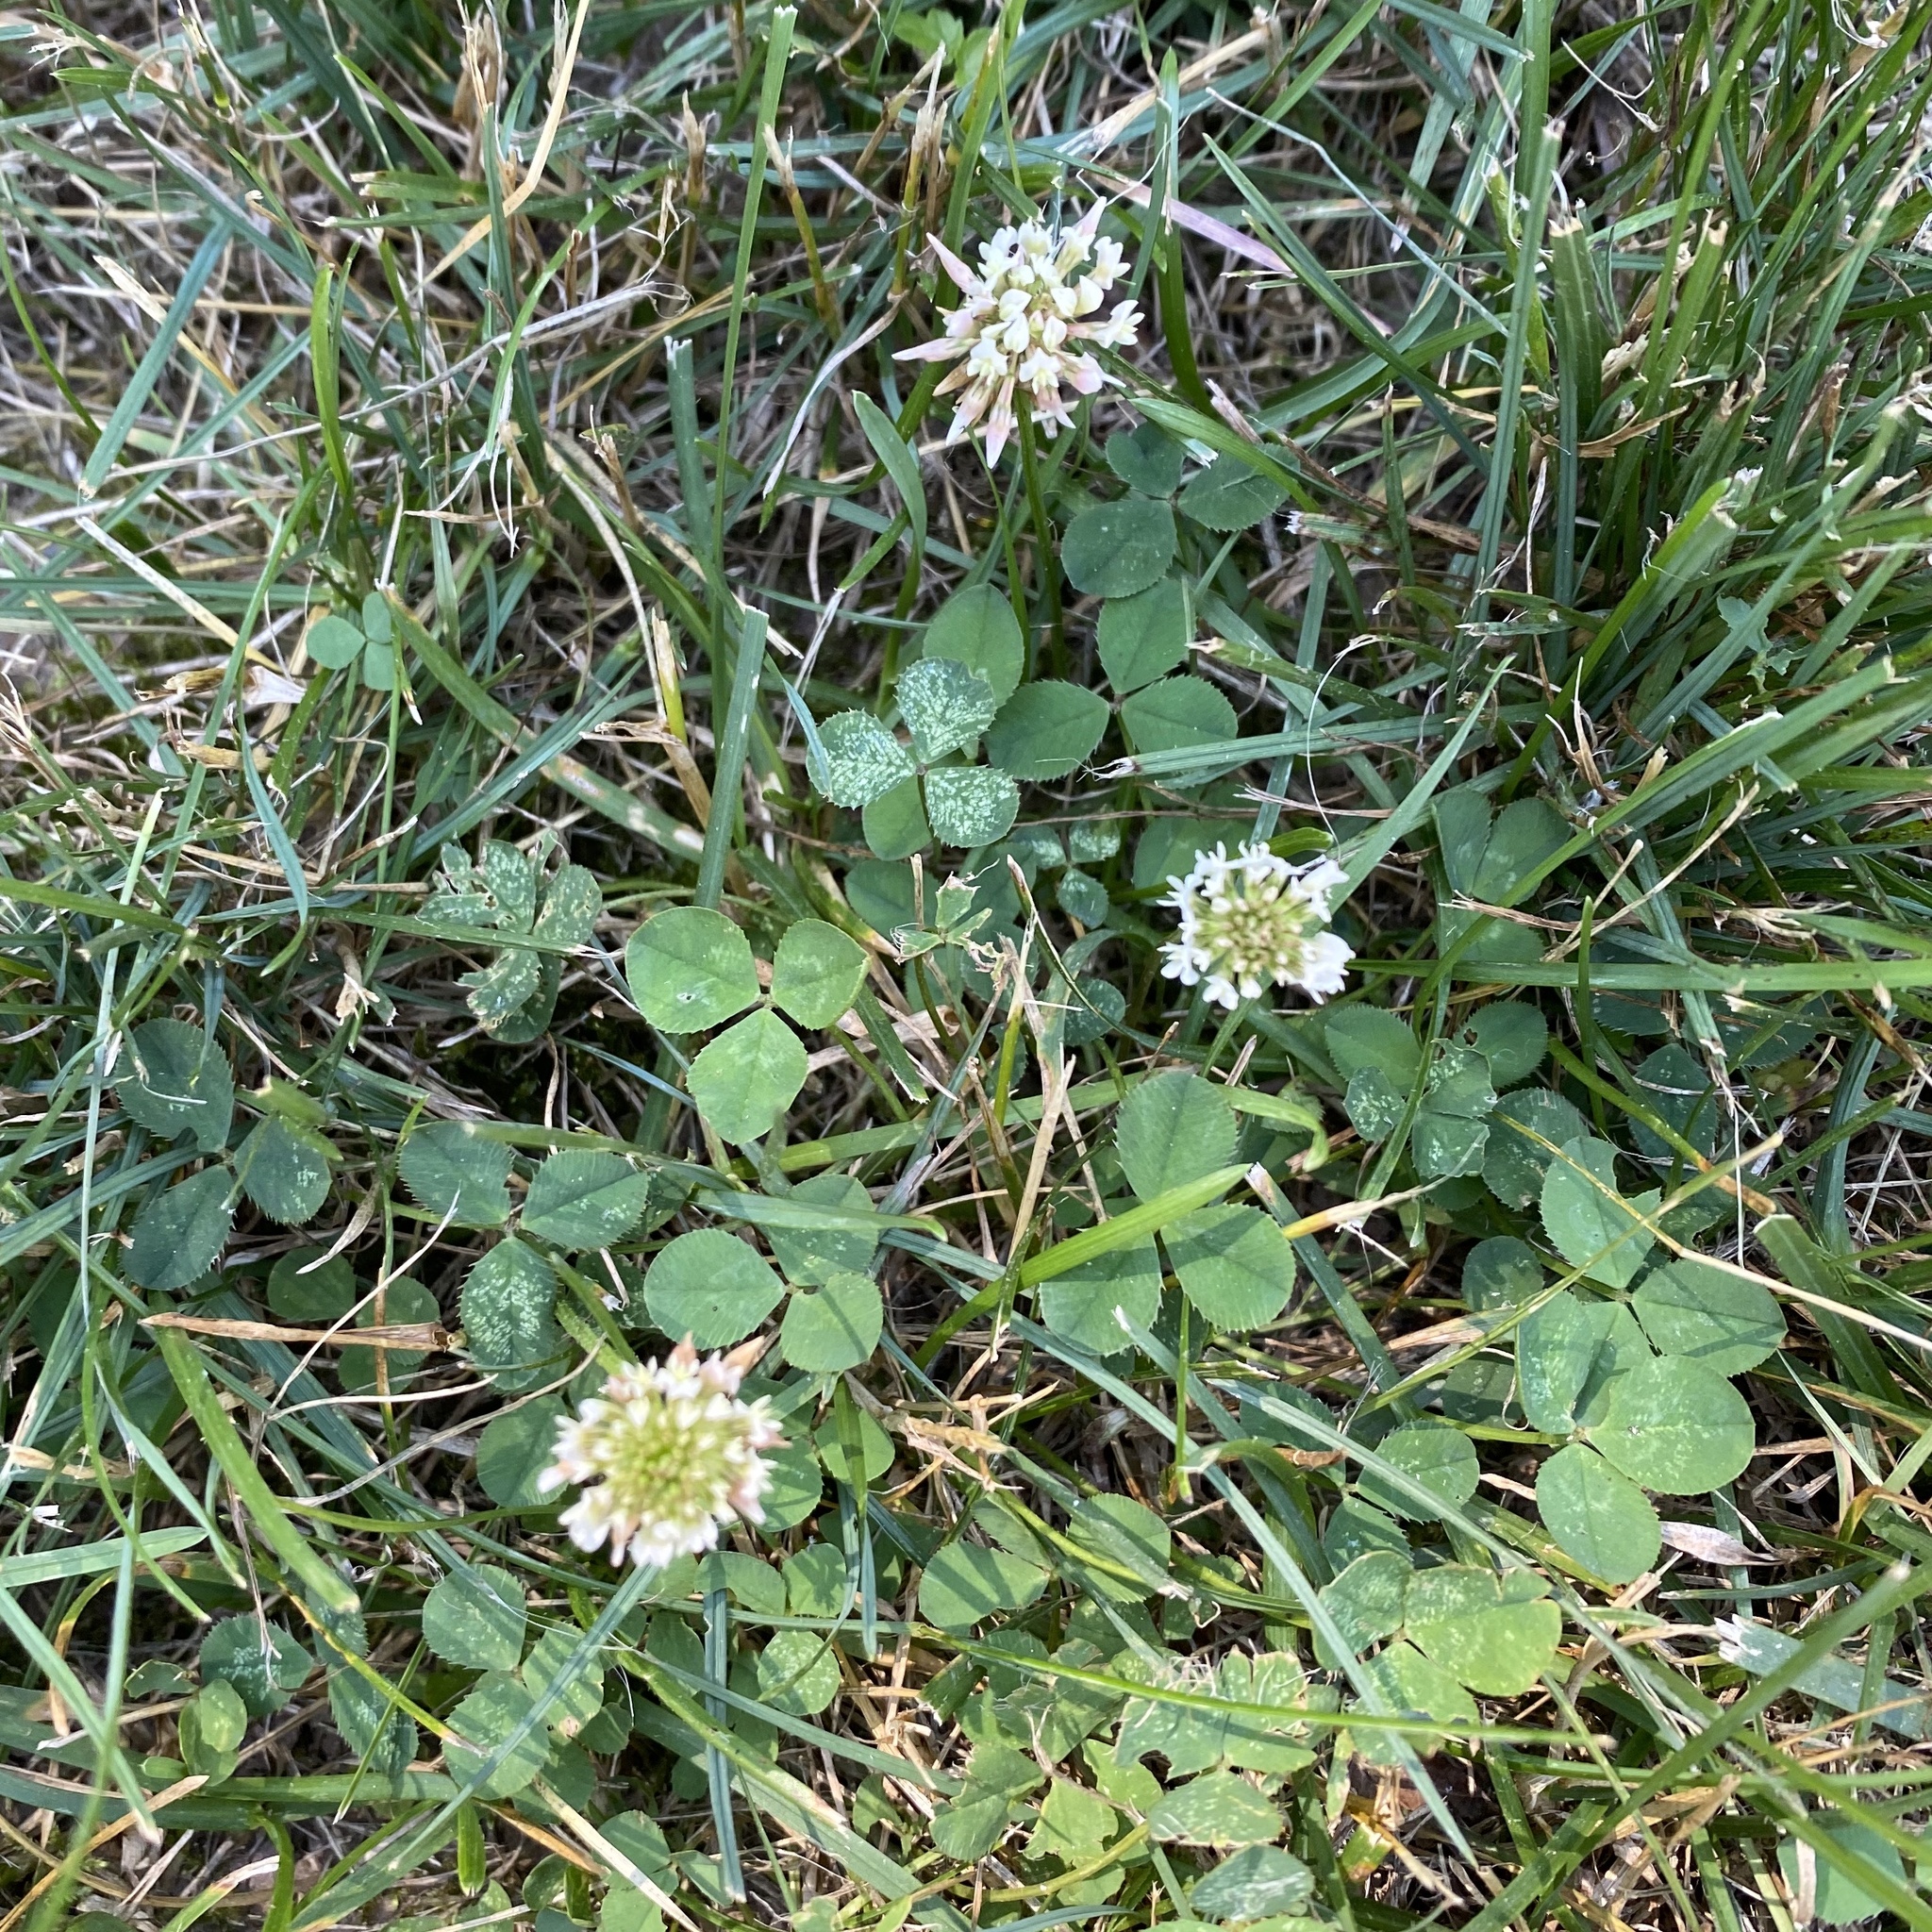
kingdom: Plantae
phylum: Tracheophyta
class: Magnoliopsida
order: Fabales
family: Fabaceae
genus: Trifolium
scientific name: Trifolium repens
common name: White clover
